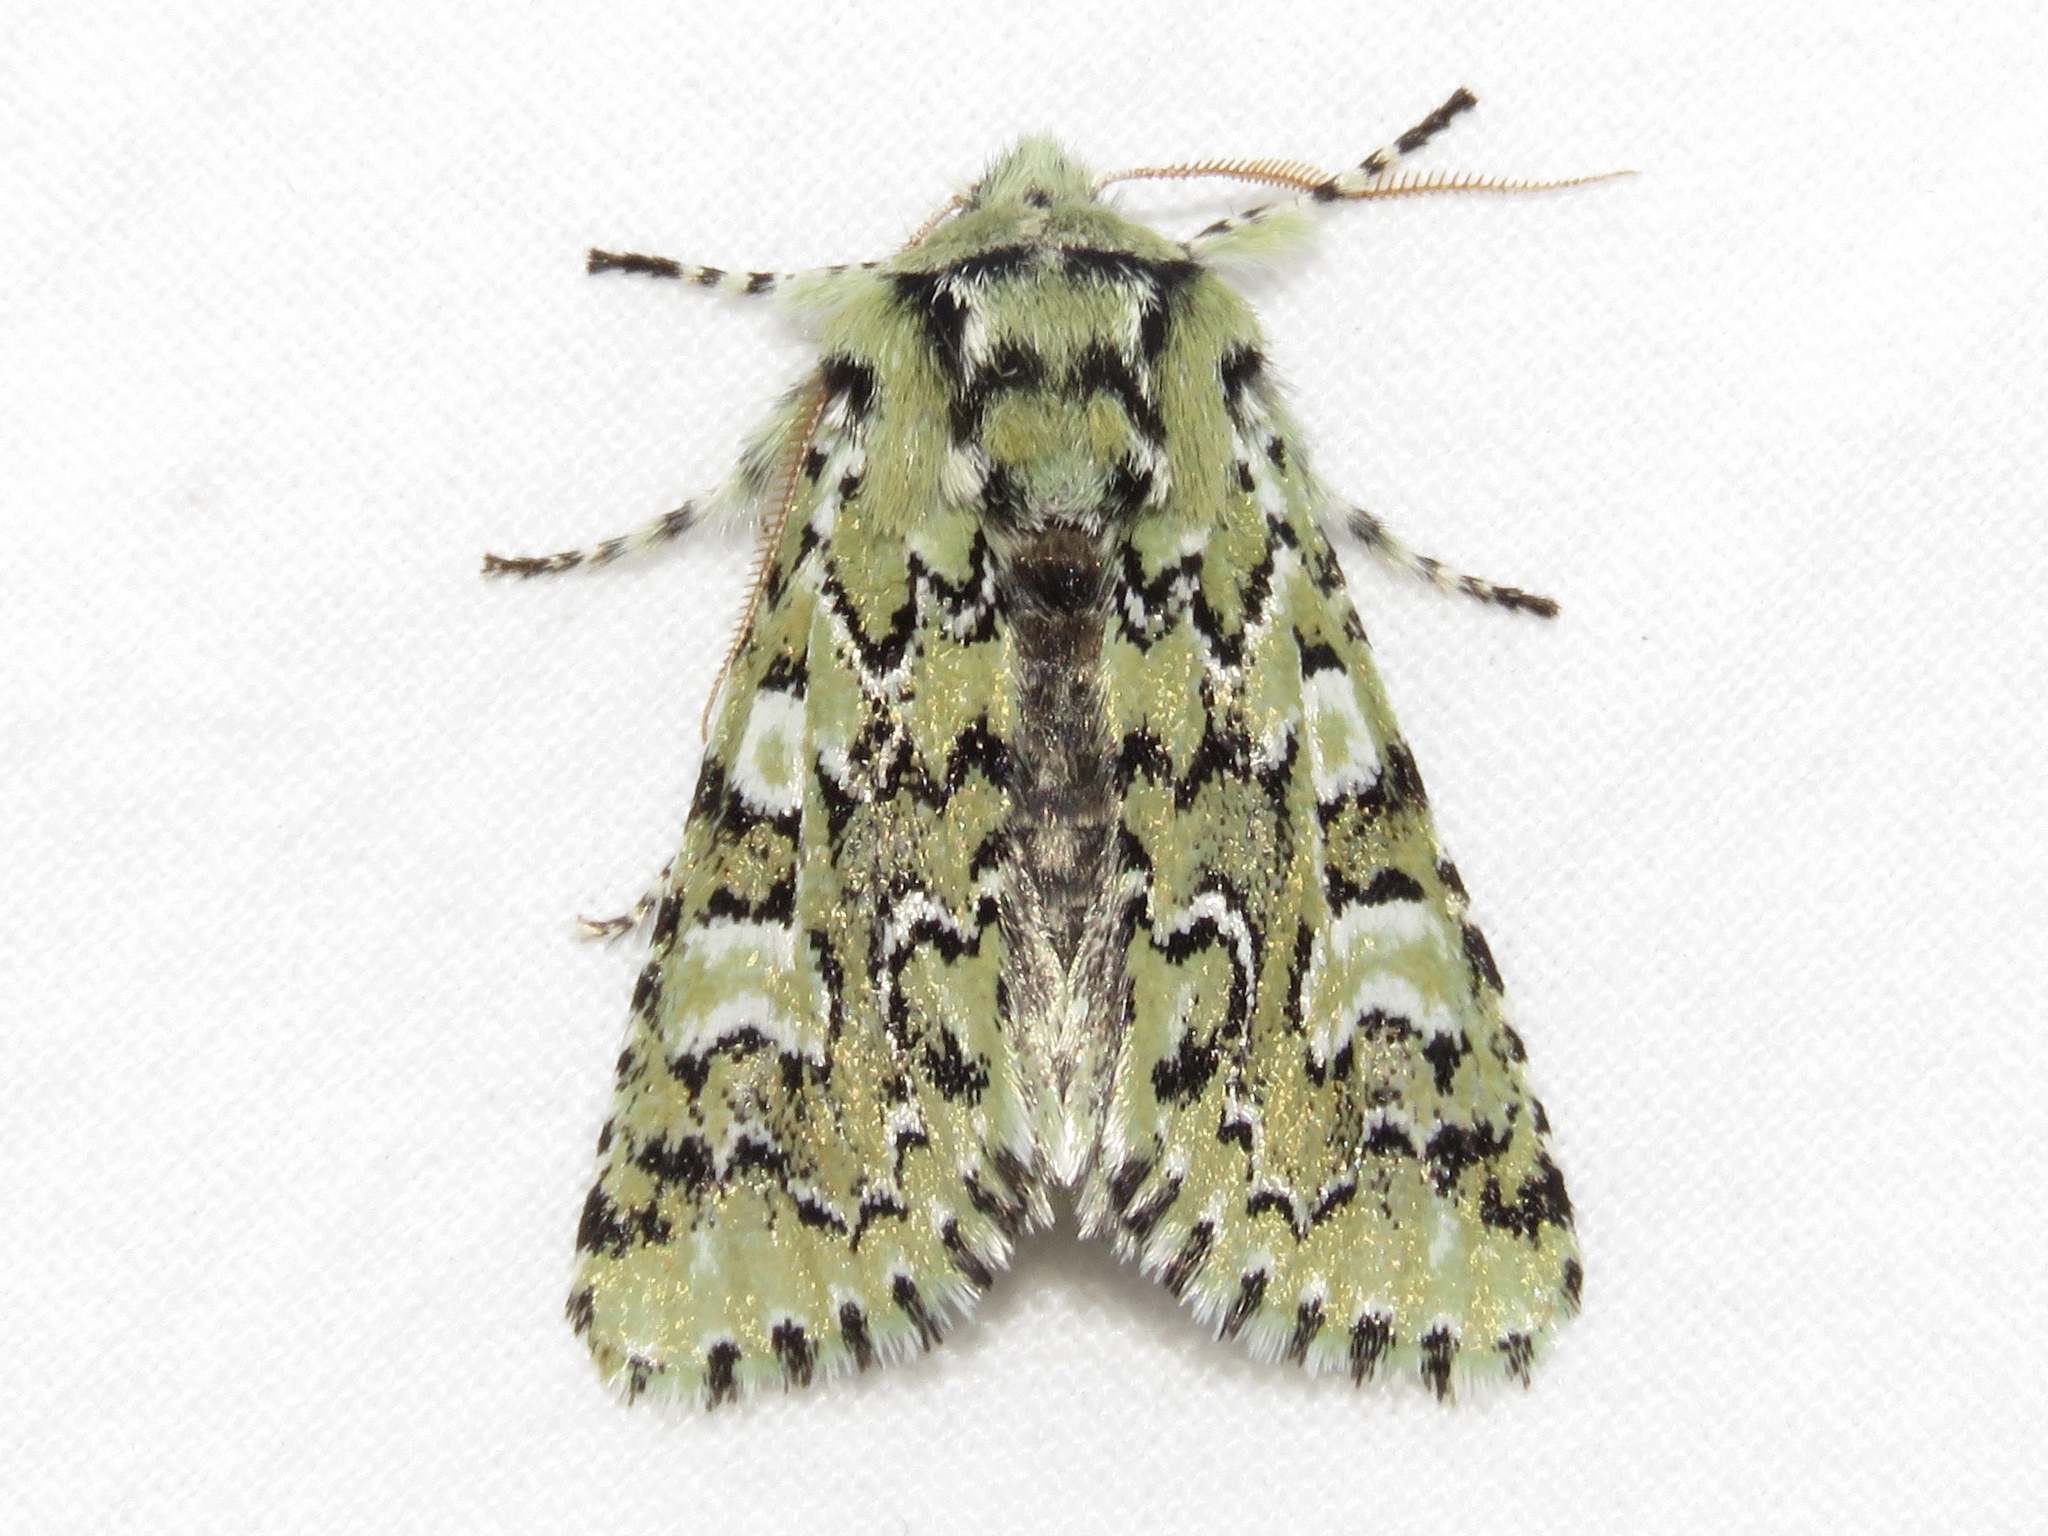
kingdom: Animalia
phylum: Arthropoda
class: Insecta
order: Lepidoptera
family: Noctuidae
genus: Feralia
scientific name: Feralia jocosa
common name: Joker
